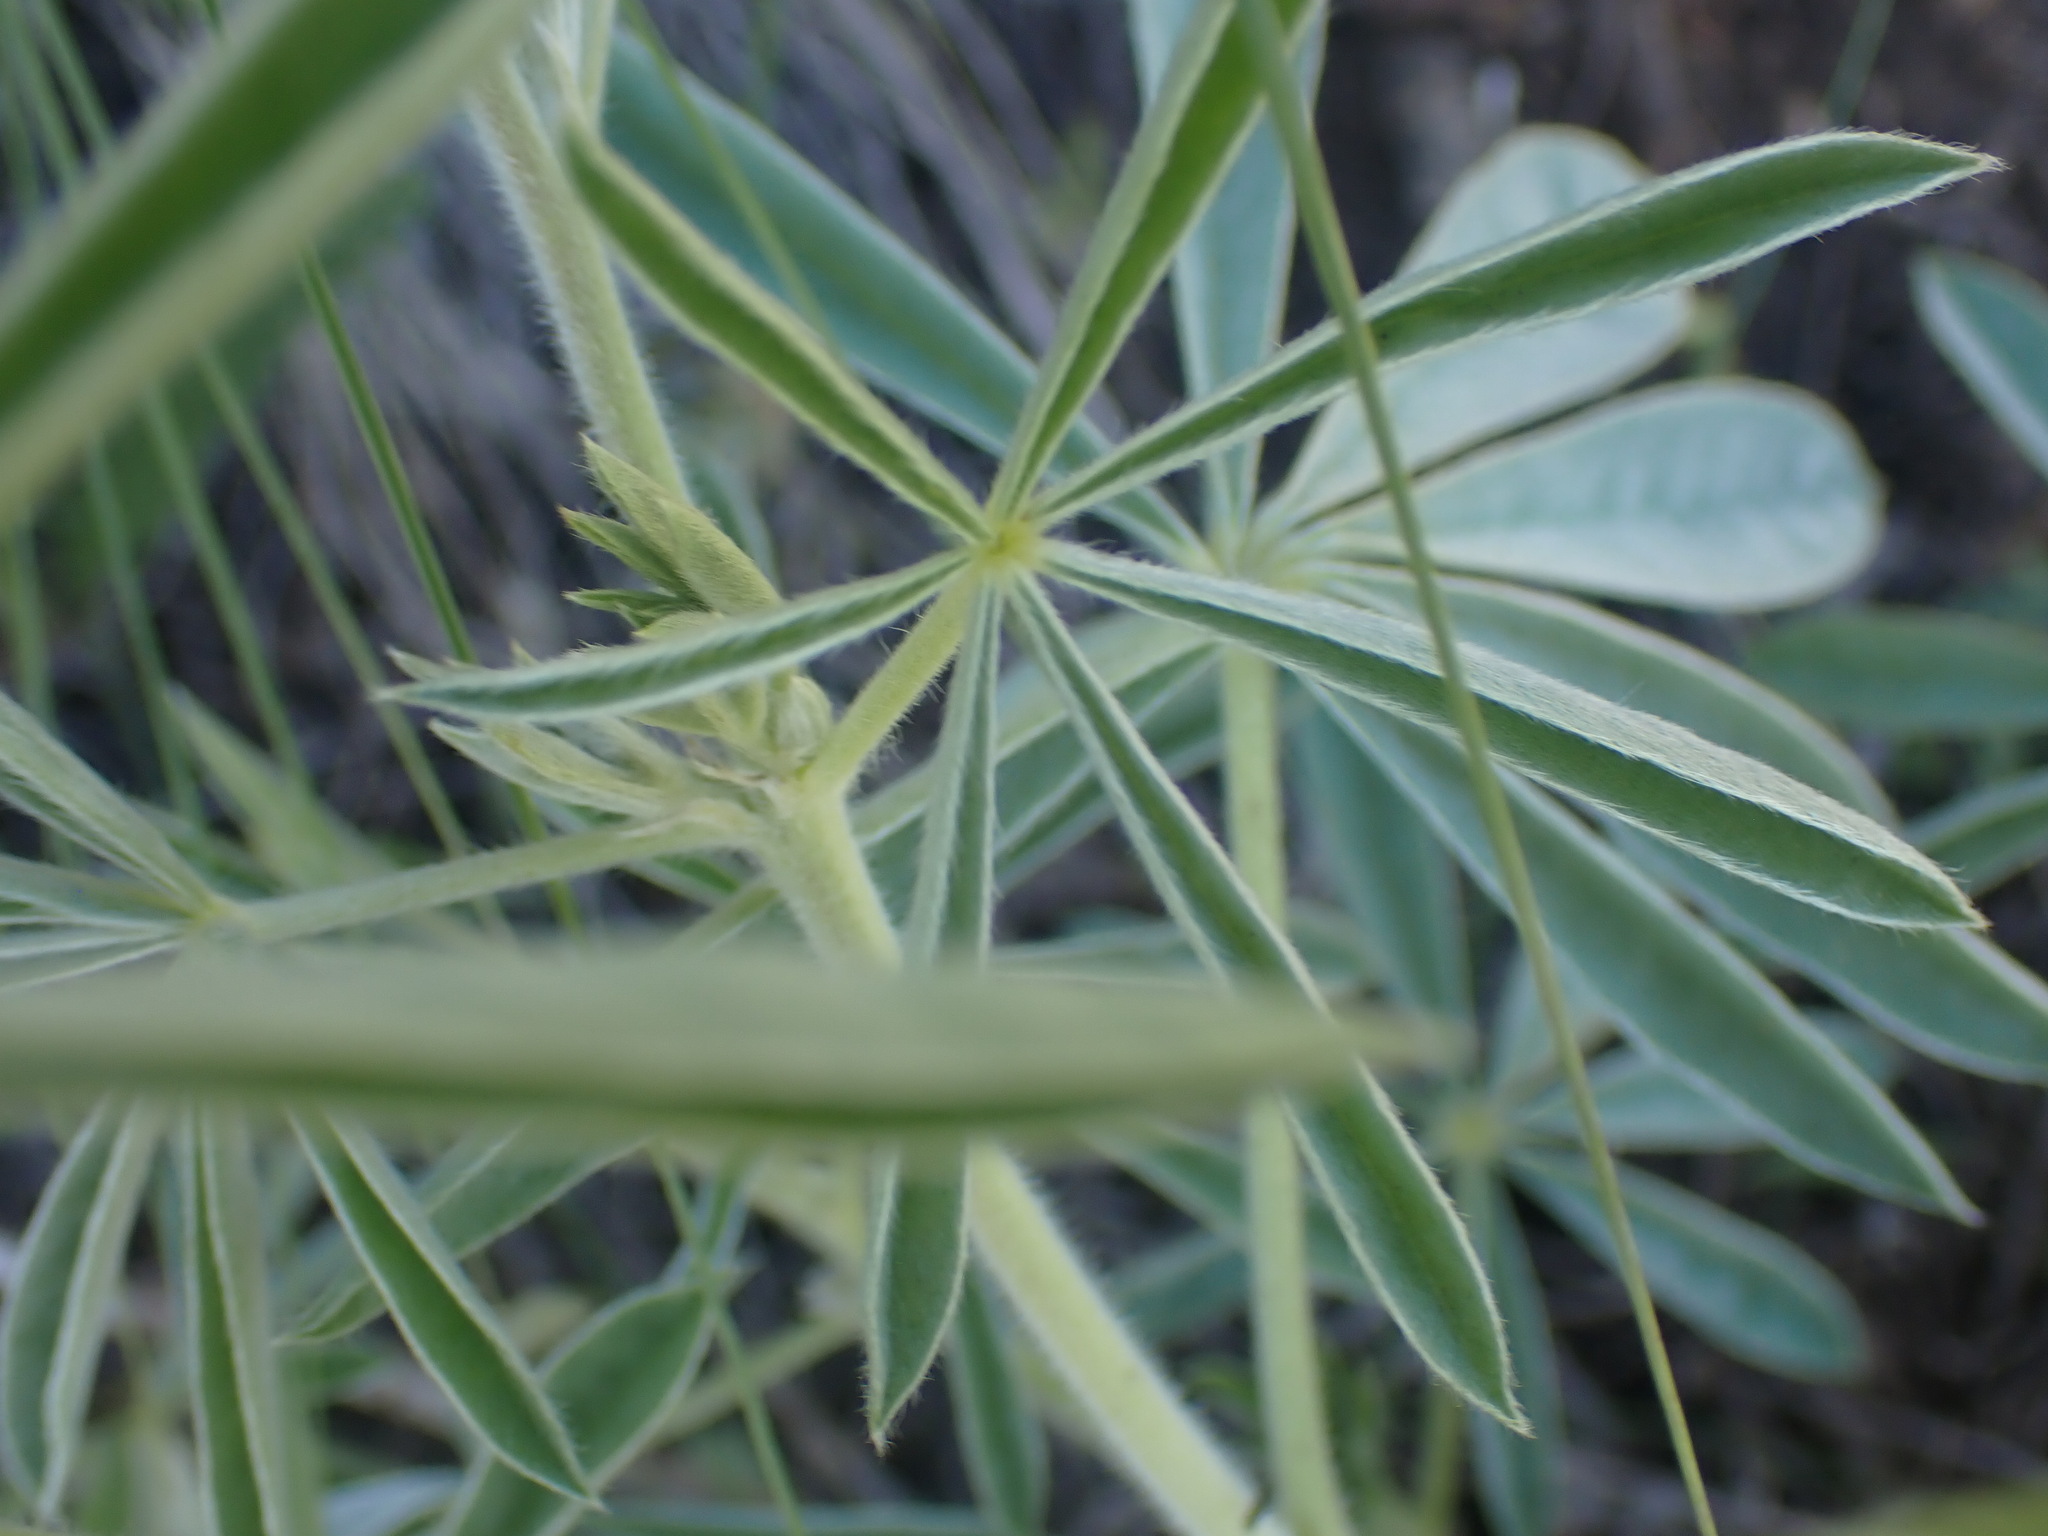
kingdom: Plantae
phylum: Tracheophyta
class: Magnoliopsida
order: Fabales
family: Fabaceae
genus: Lupinus
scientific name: Lupinus sericeus
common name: Silky lupine
